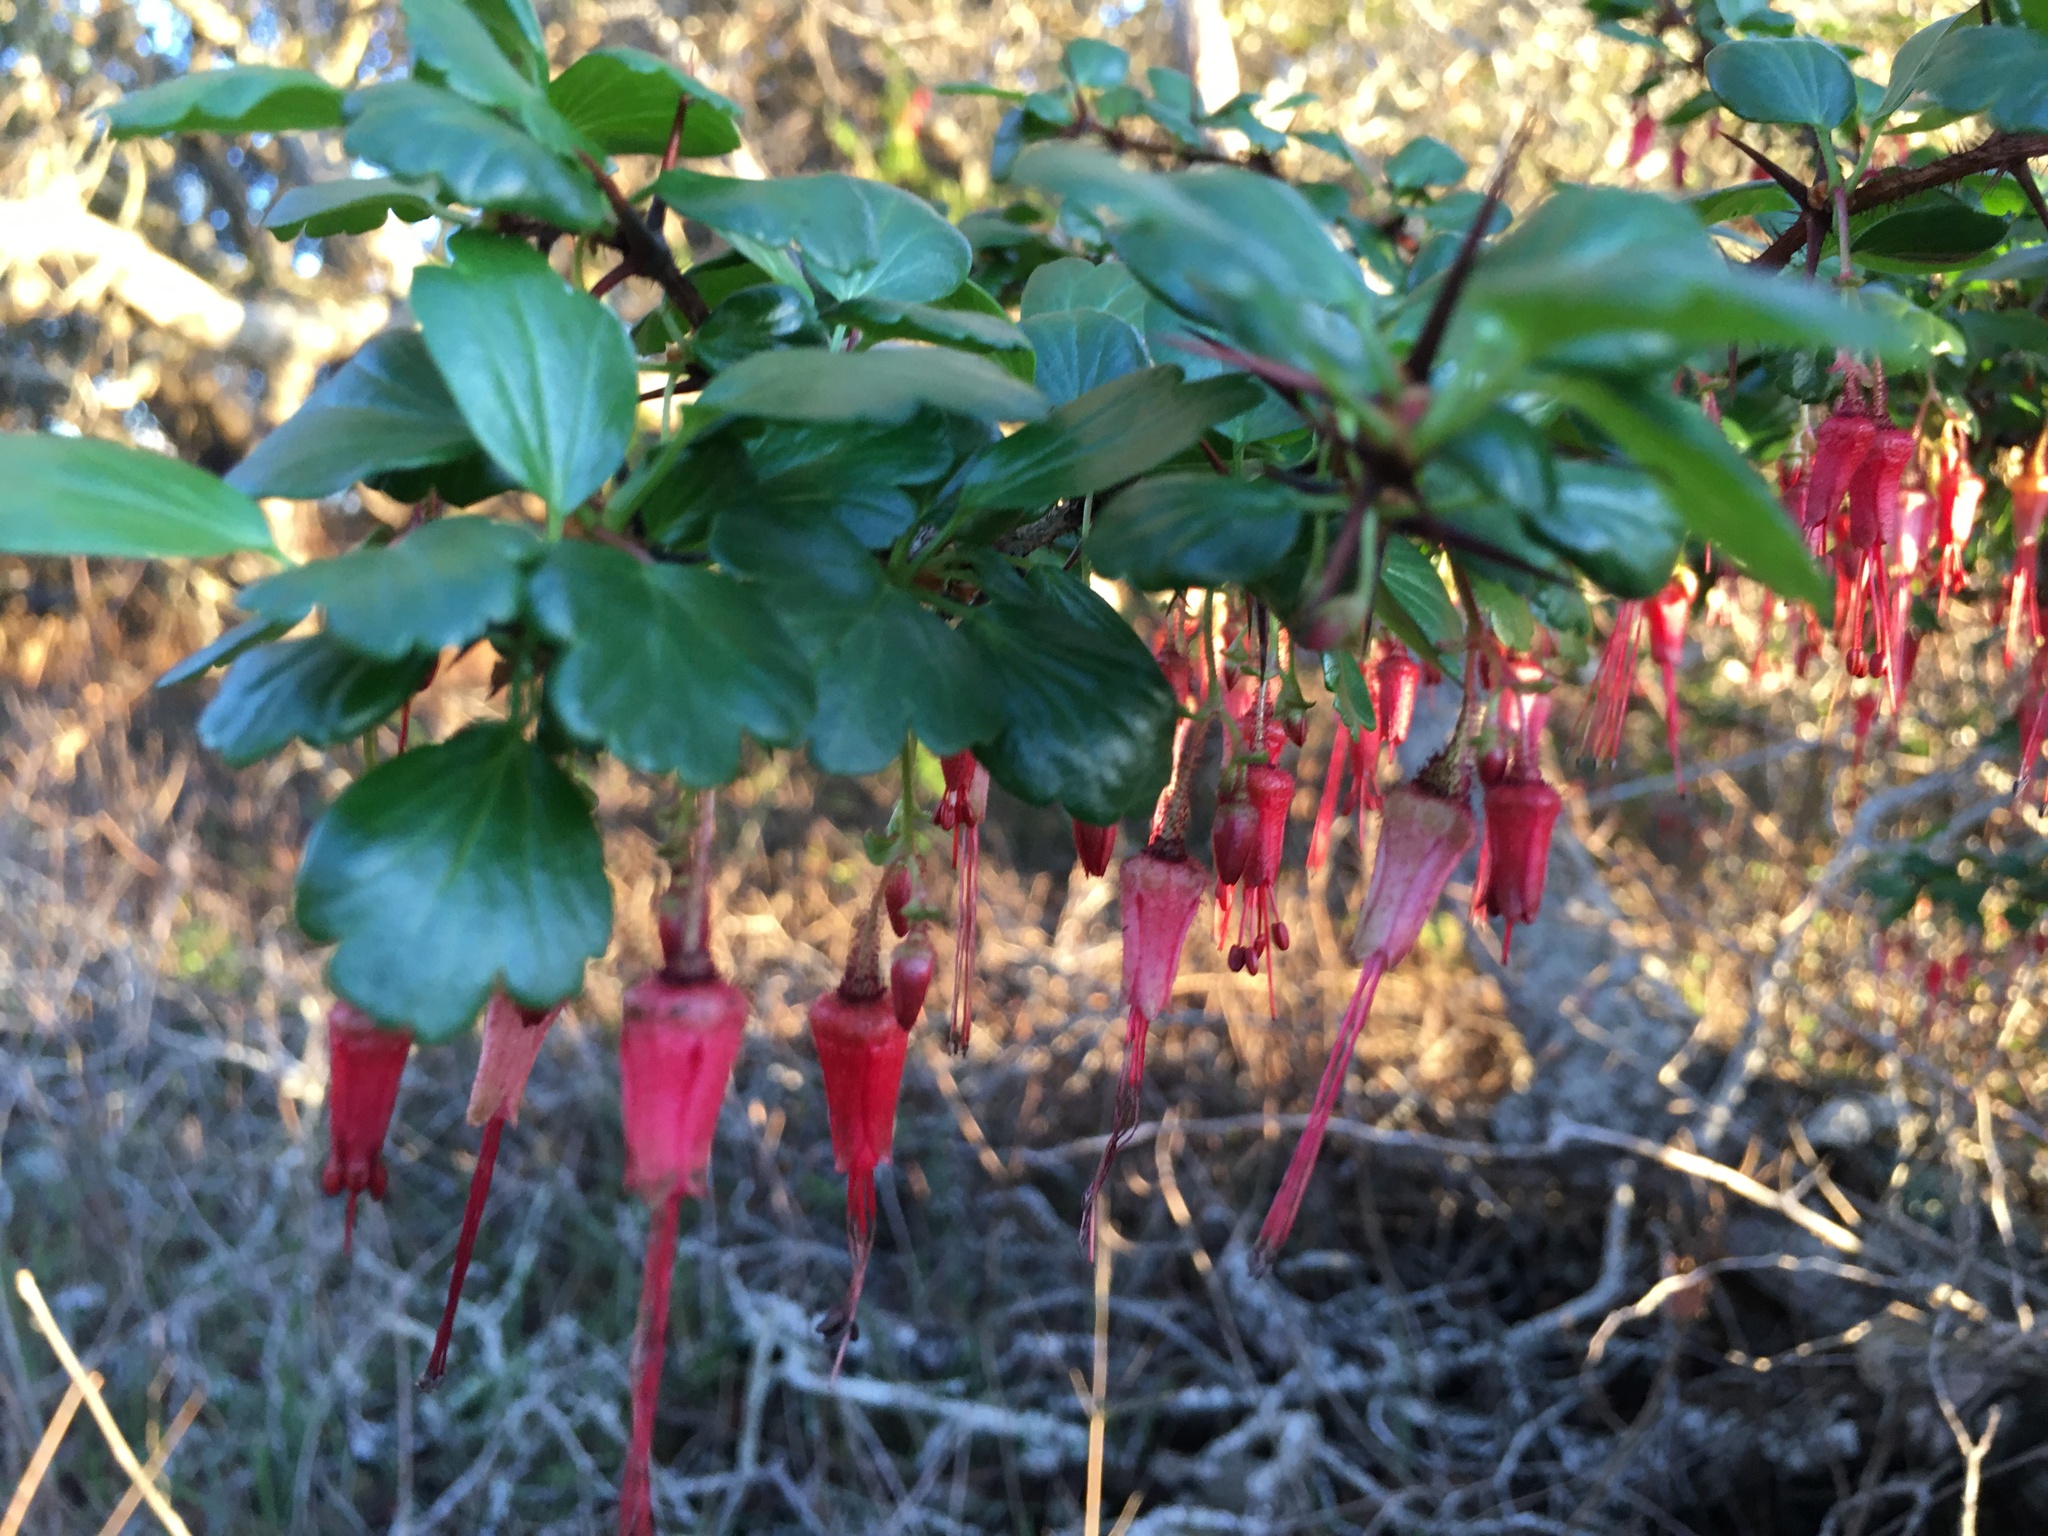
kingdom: Plantae
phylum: Tracheophyta
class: Magnoliopsida
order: Saxifragales
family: Grossulariaceae
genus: Ribes
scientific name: Ribes speciosum
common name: Fuchsia-flower gooseberry
